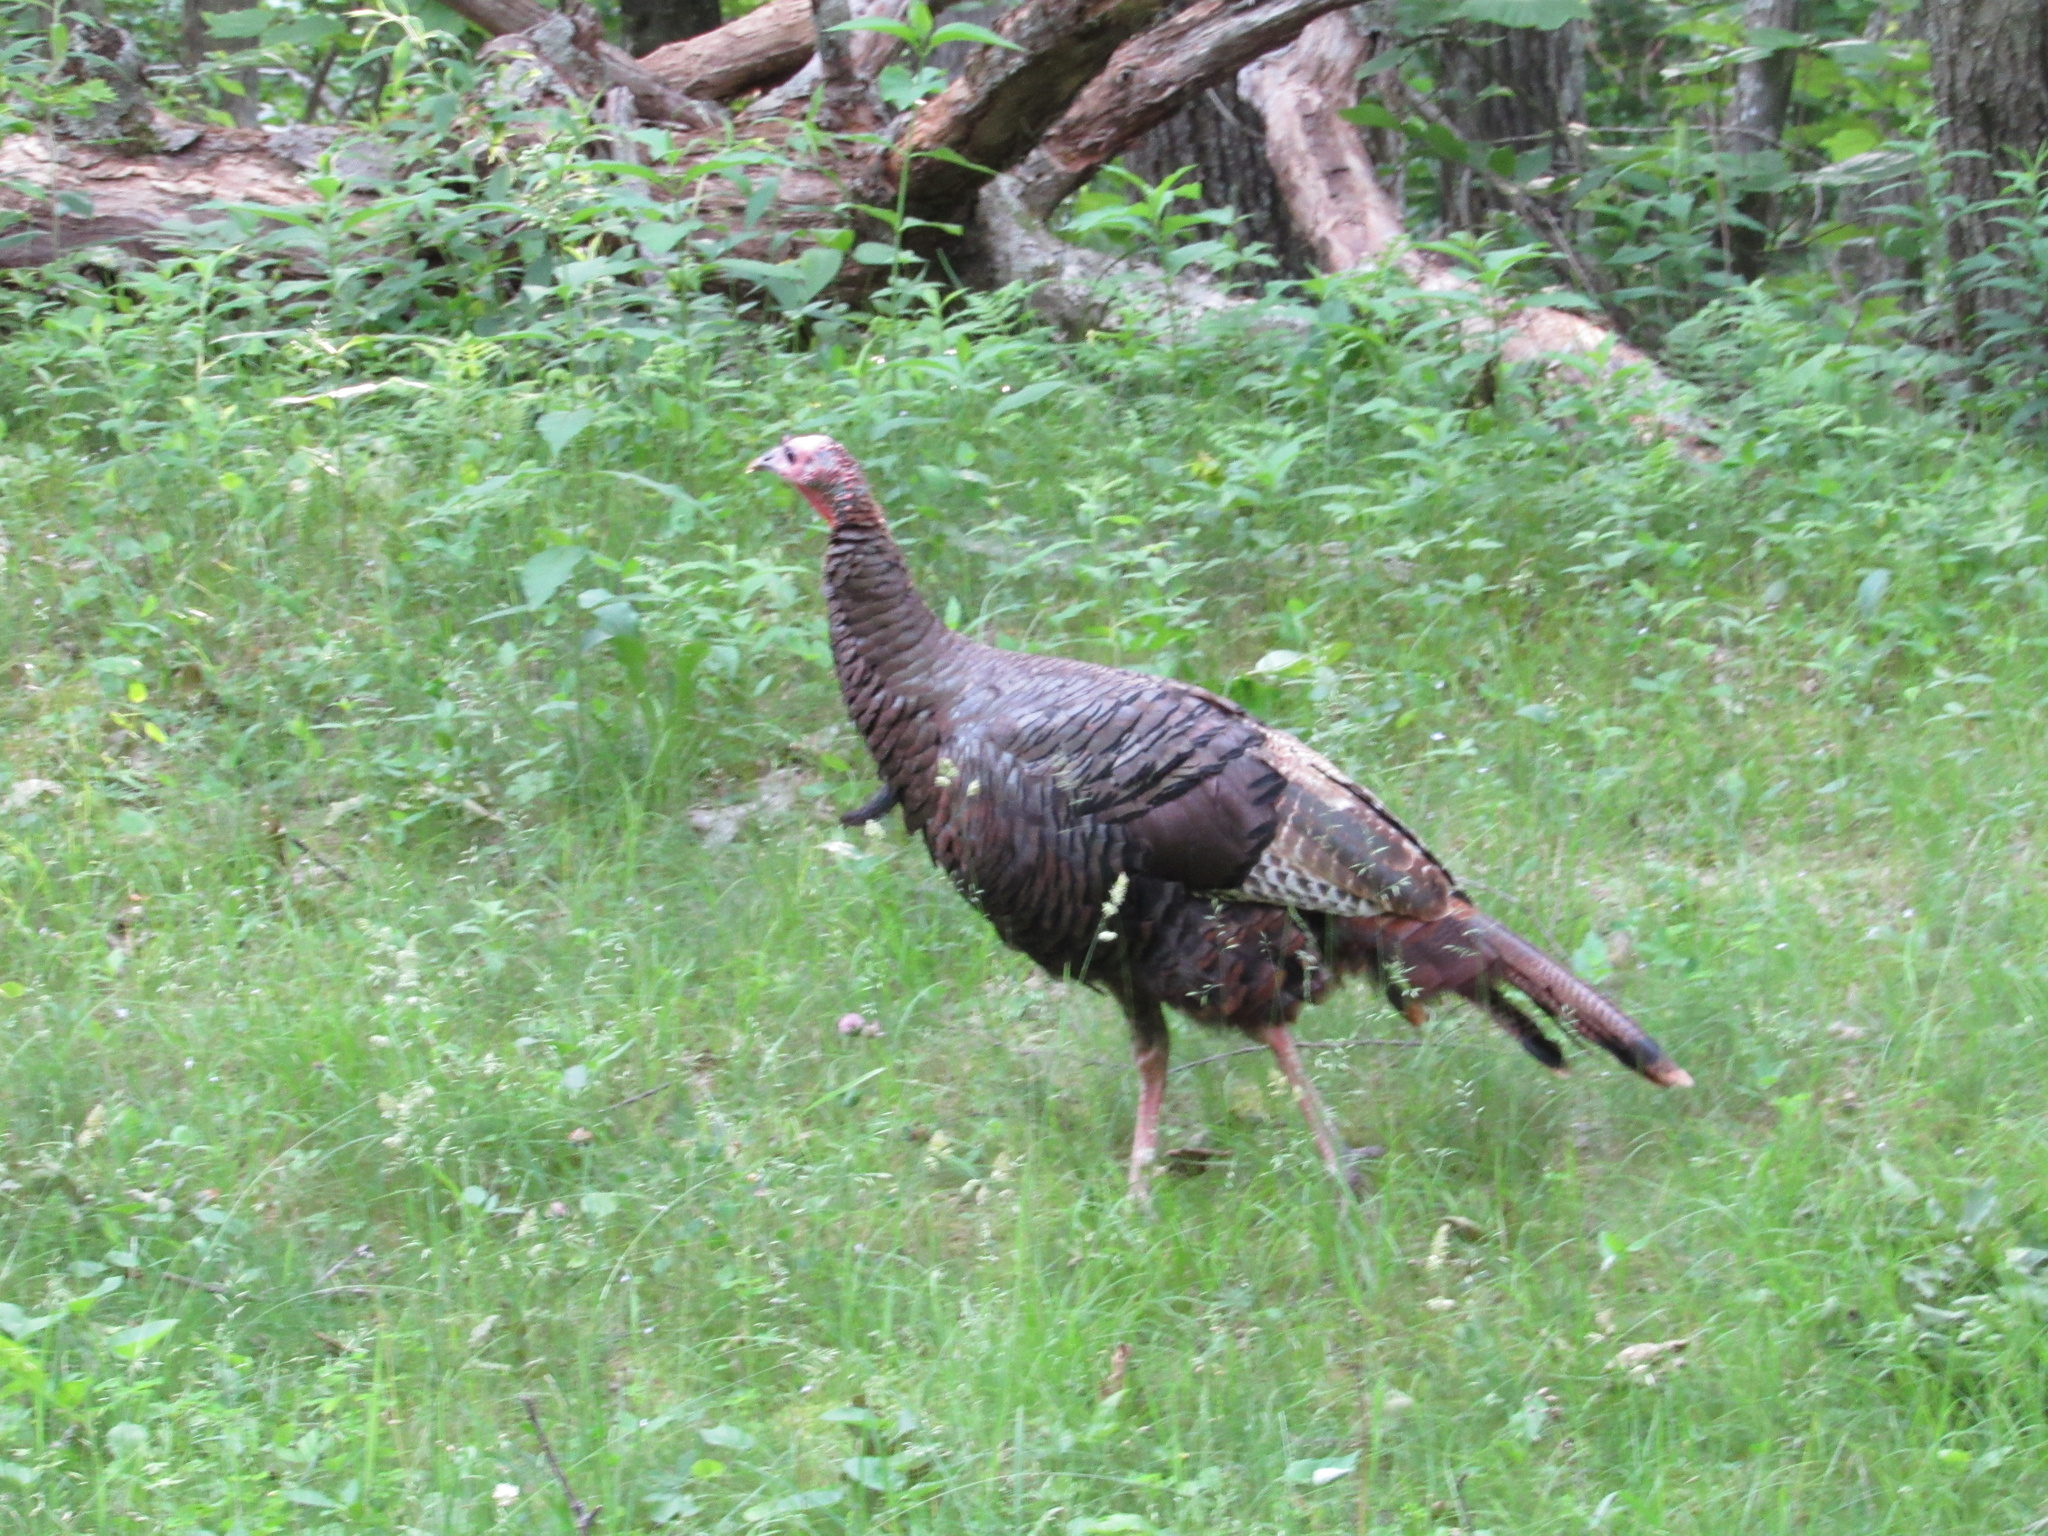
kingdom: Animalia
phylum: Chordata
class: Aves
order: Galliformes
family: Phasianidae
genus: Meleagris
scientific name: Meleagris gallopavo
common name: Wild turkey
